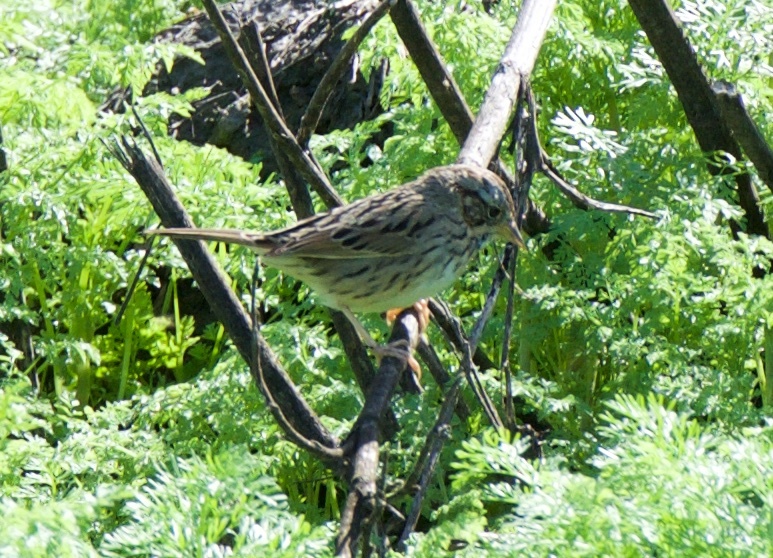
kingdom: Animalia
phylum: Chordata
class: Aves
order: Passeriformes
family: Passerellidae
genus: Melospiza
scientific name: Melospiza lincolnii
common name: Lincoln's sparrow
